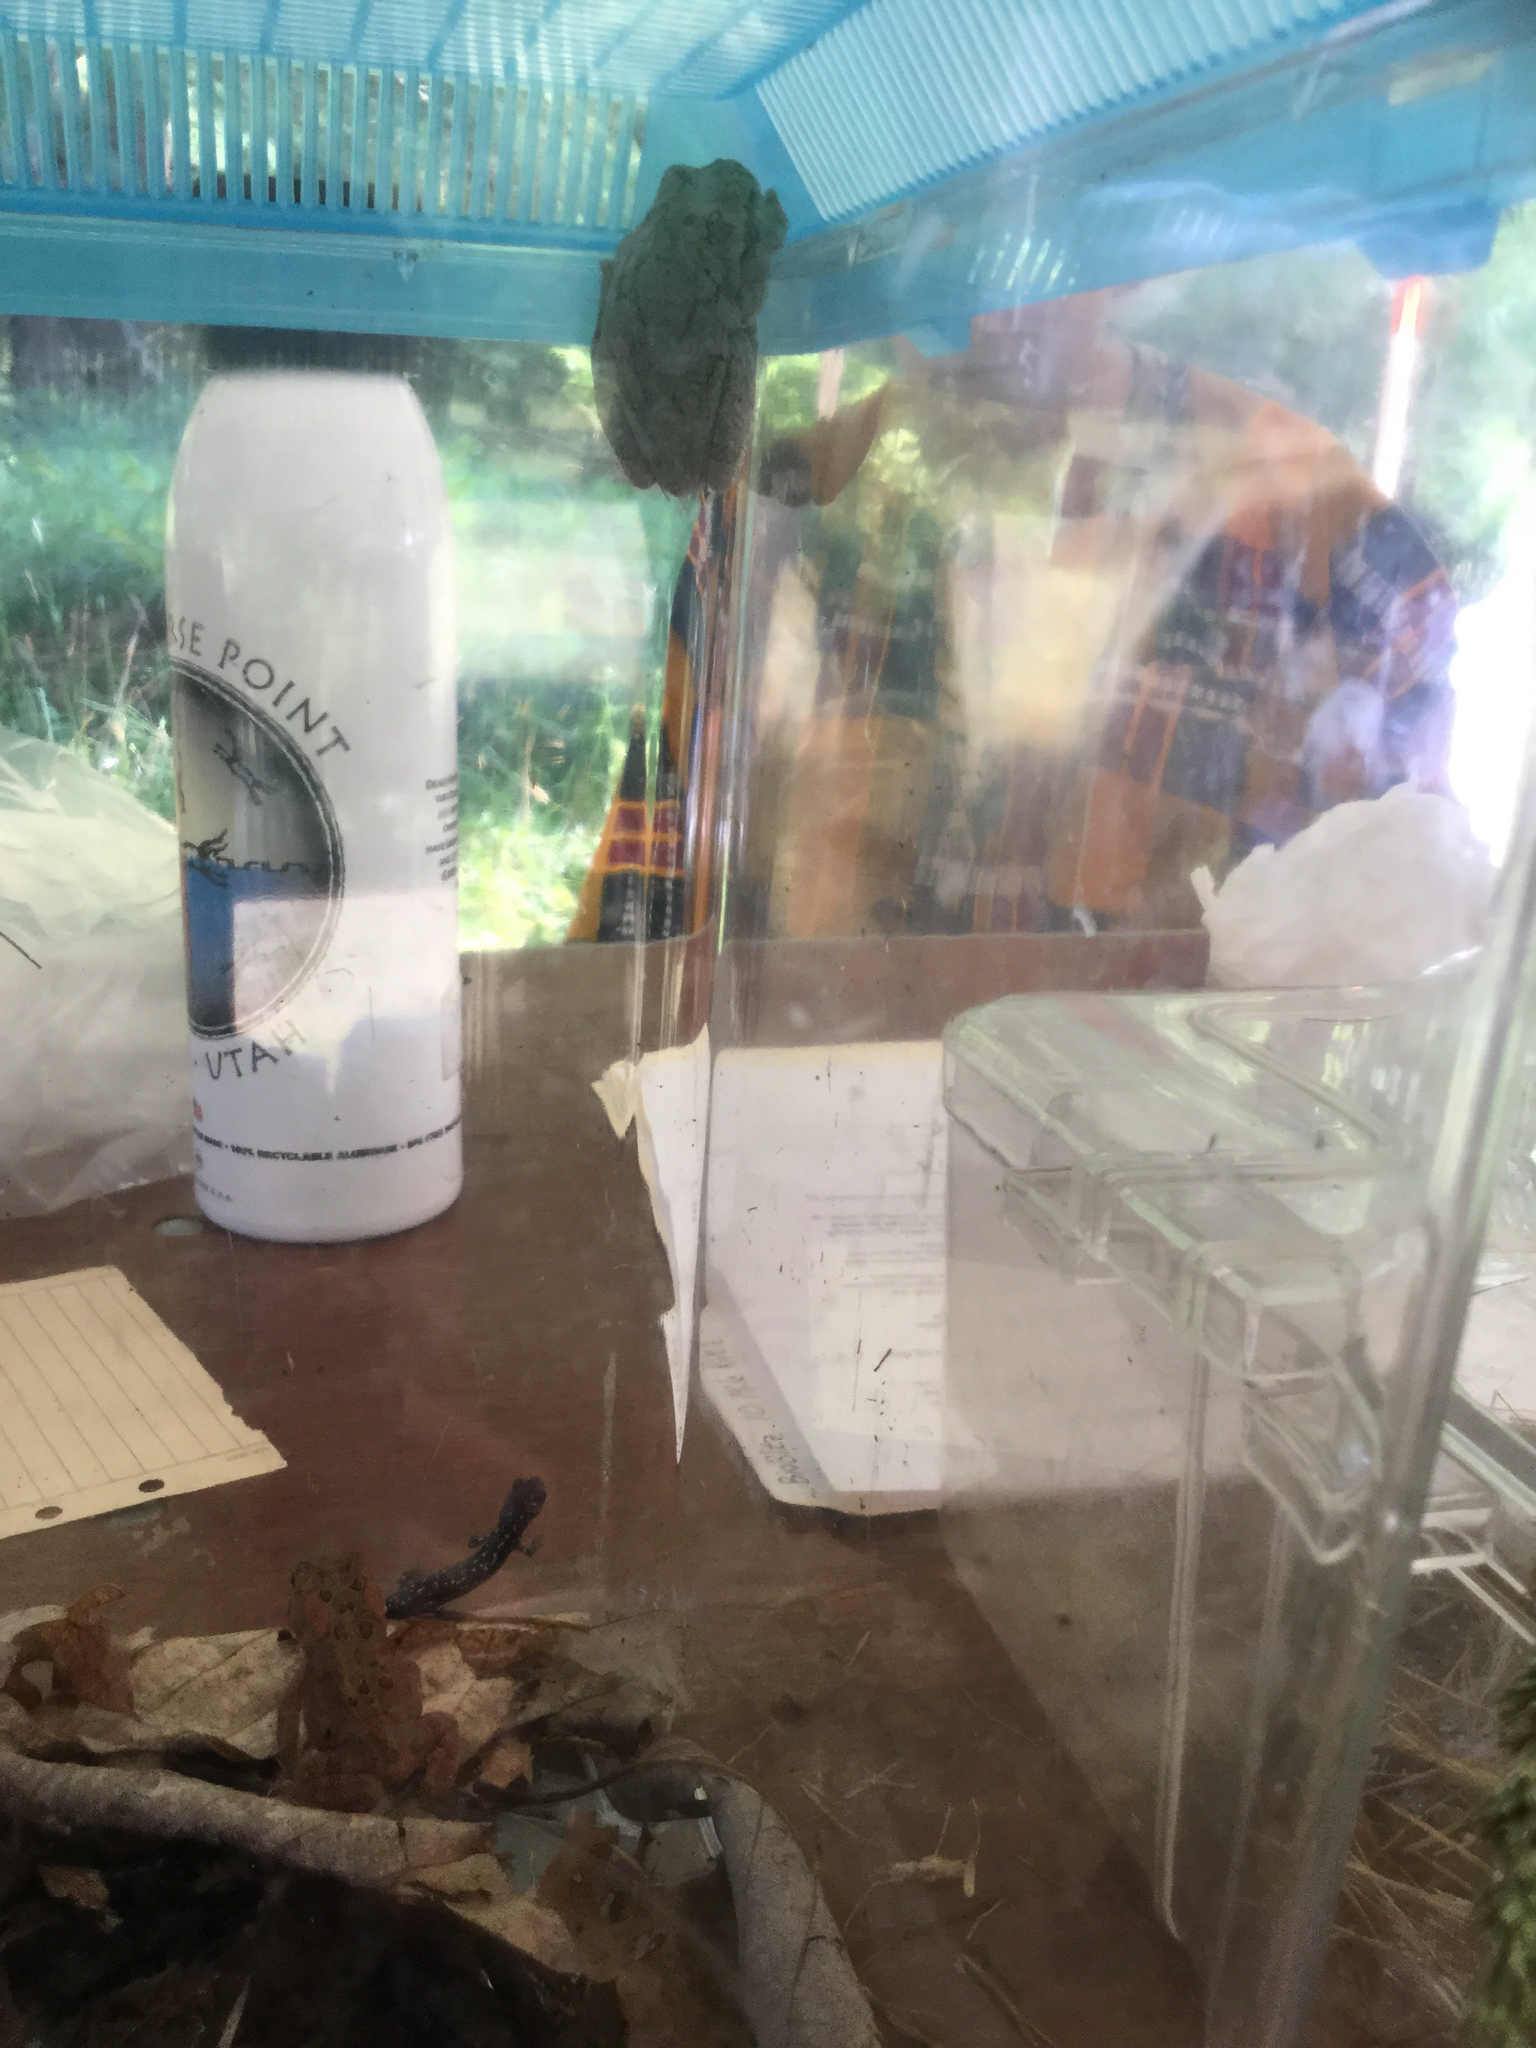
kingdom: Animalia
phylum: Chordata
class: Amphibia
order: Anura
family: Hylidae
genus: Dryophytes
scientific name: Dryophytes versicolor
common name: Gray treefrog
